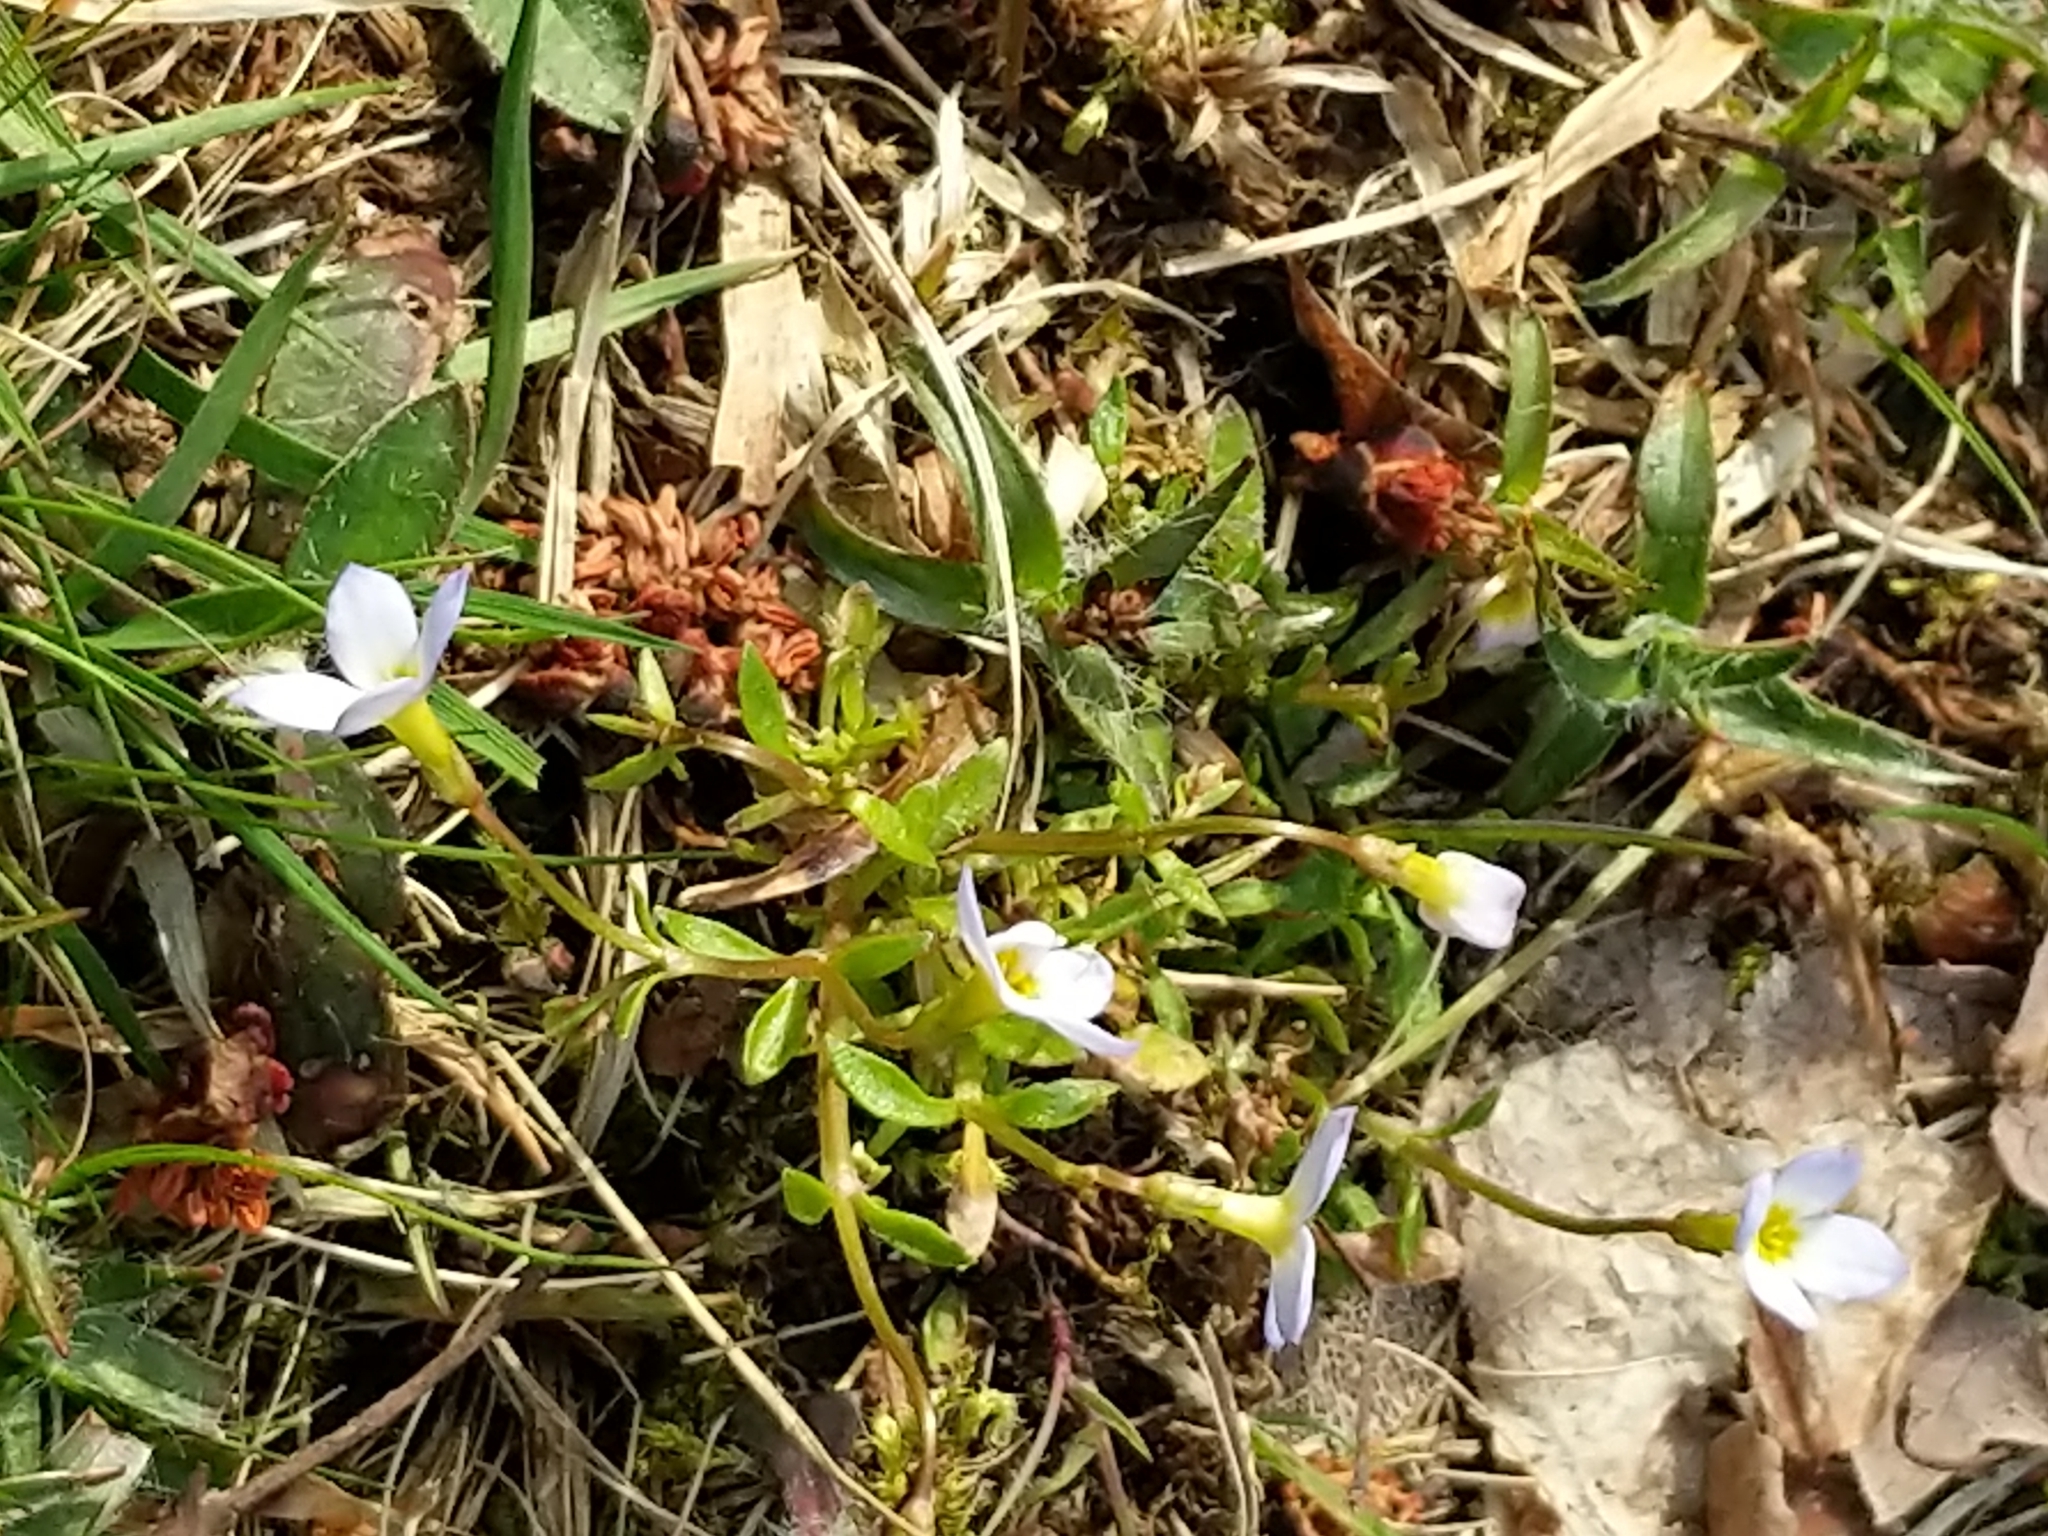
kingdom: Plantae
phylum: Tracheophyta
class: Magnoliopsida
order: Gentianales
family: Rubiaceae
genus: Houstonia
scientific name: Houstonia caerulea
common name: Bluets
